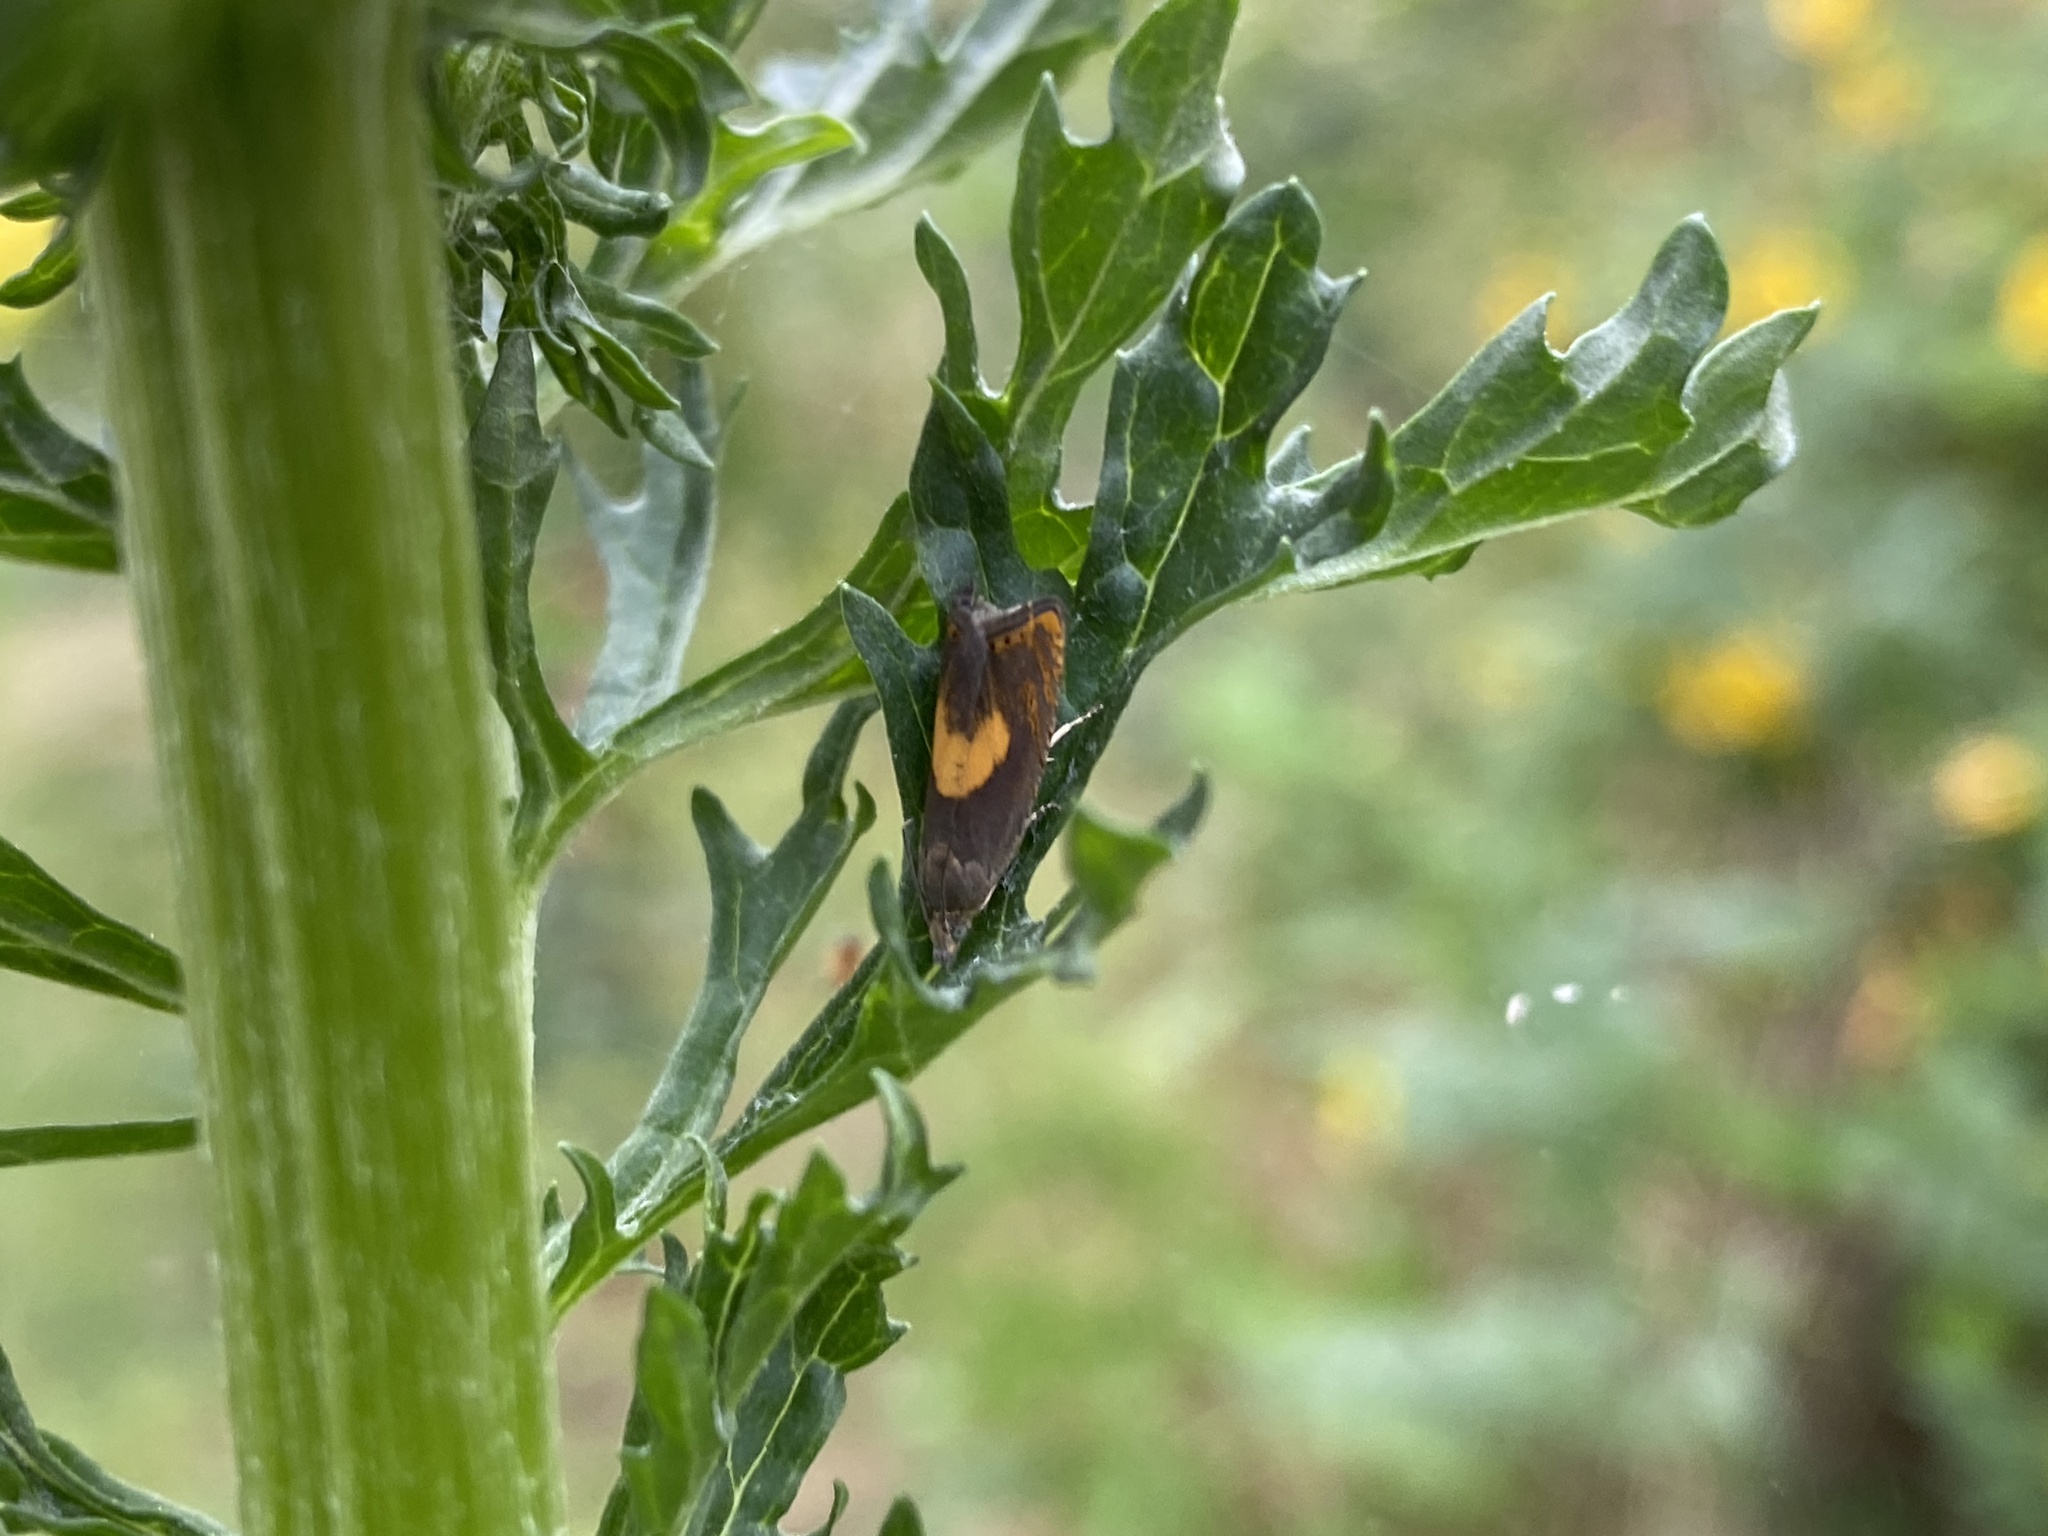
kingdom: Animalia
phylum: Arthropoda
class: Insecta
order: Lepidoptera
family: Tortricidae
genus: Dichrorampha
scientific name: Dichrorampha alpinana
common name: Broad-blotch drill
